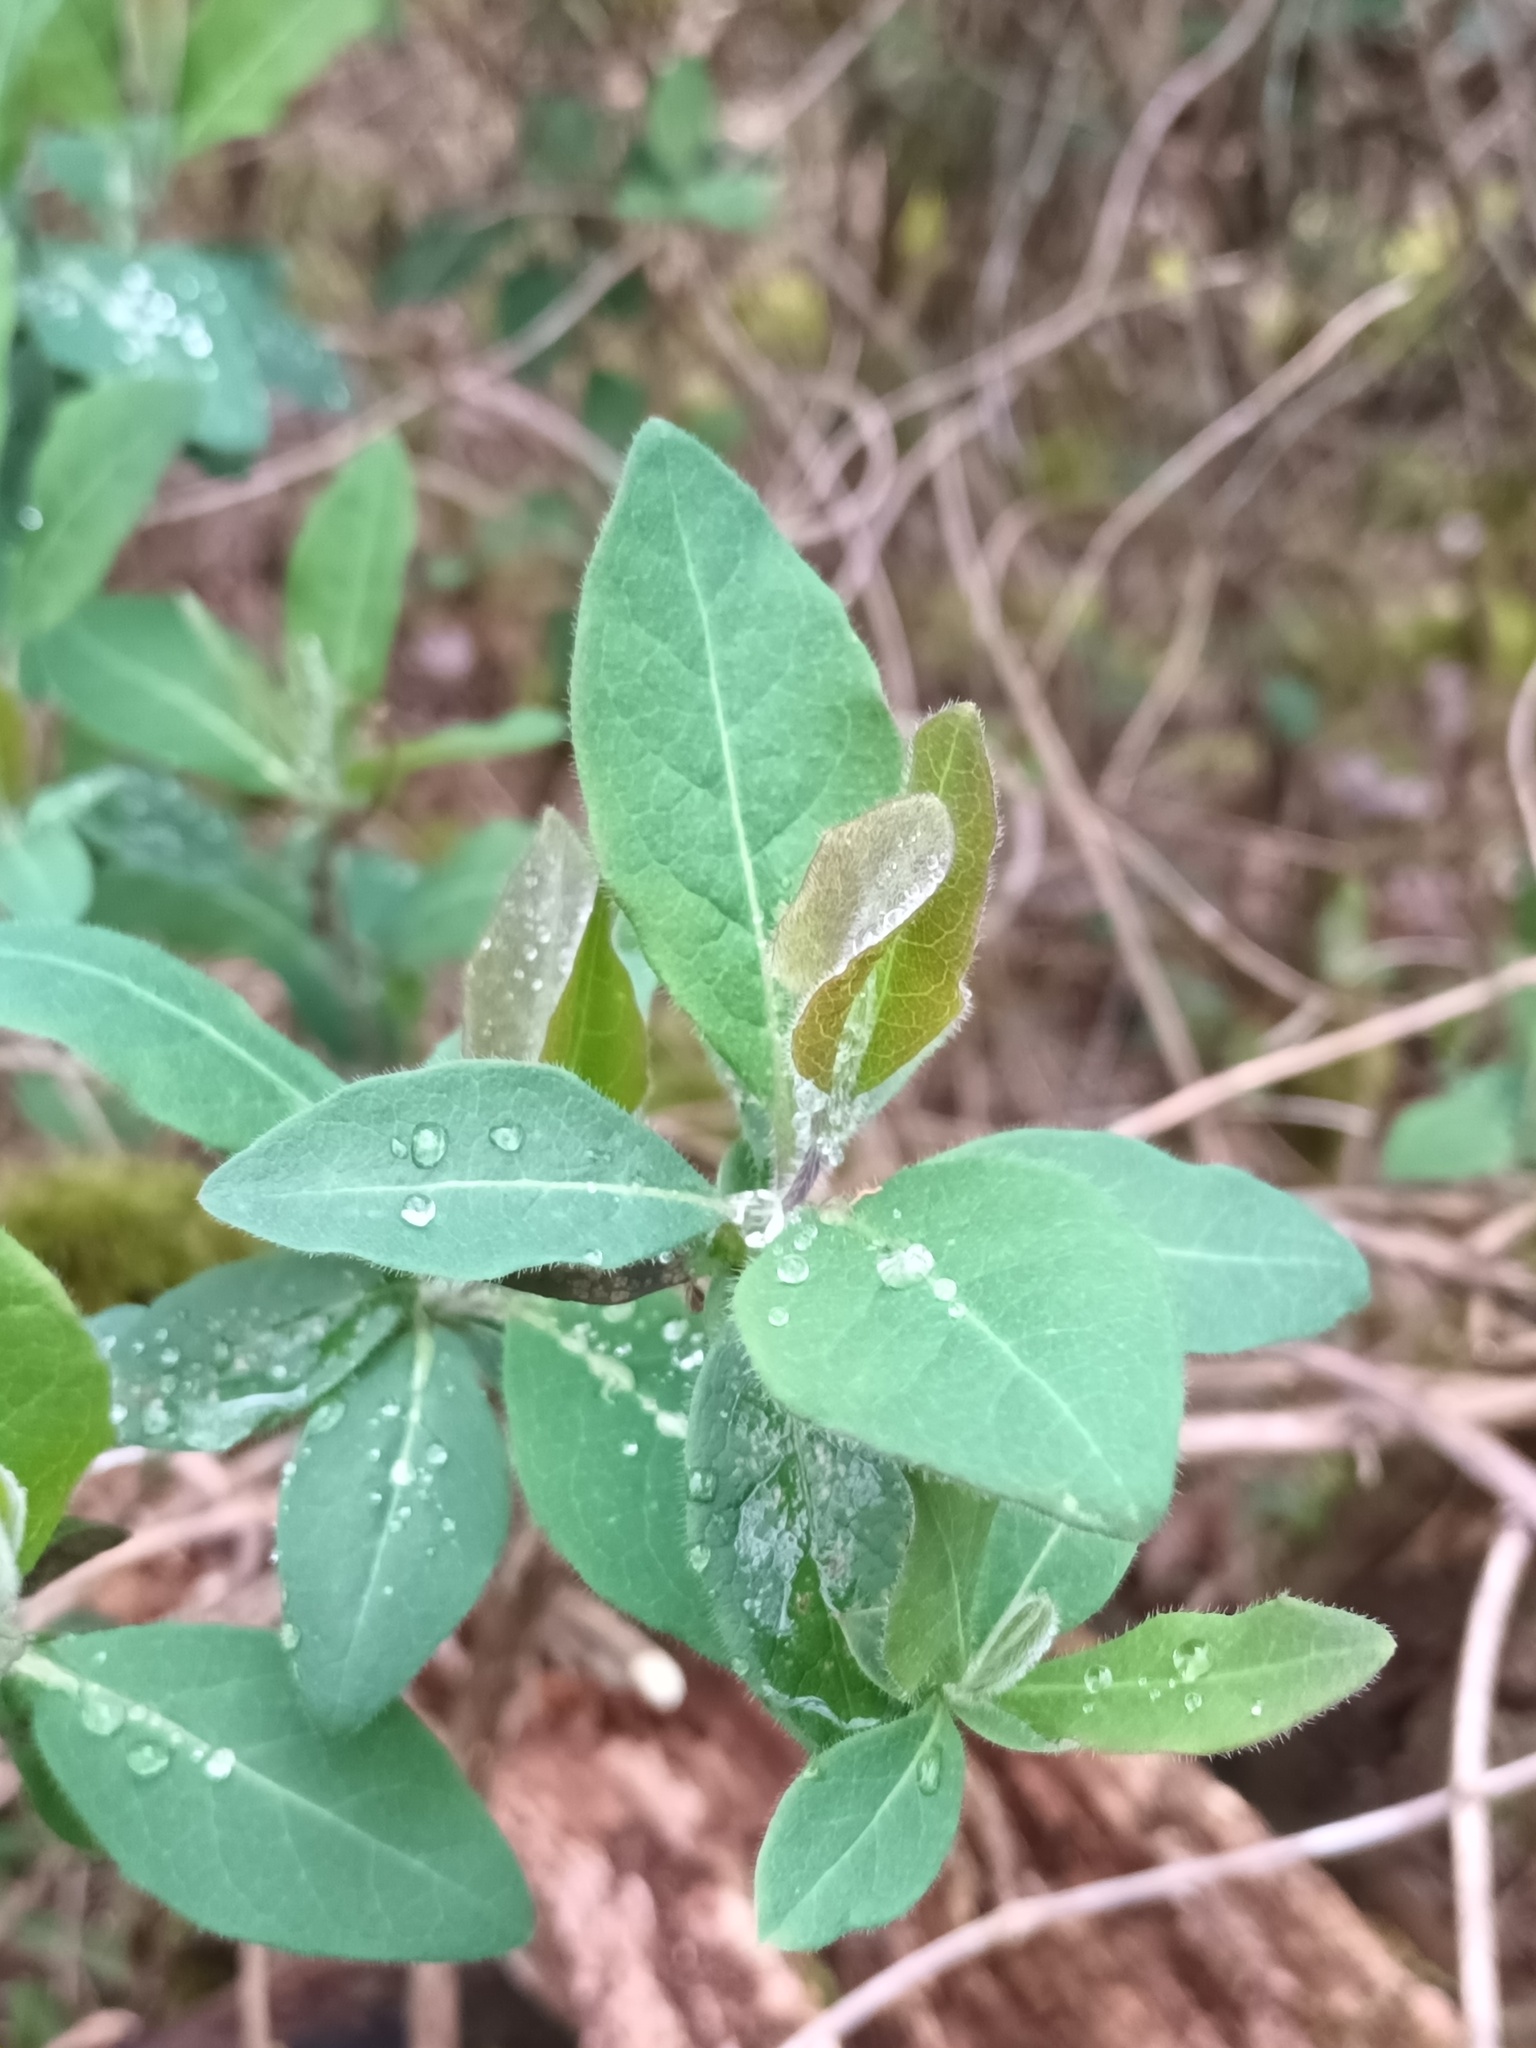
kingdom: Plantae
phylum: Tracheophyta
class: Magnoliopsida
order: Dipsacales
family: Caprifoliaceae
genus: Lonicera
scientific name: Lonicera periclymenum
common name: European honeysuckle
